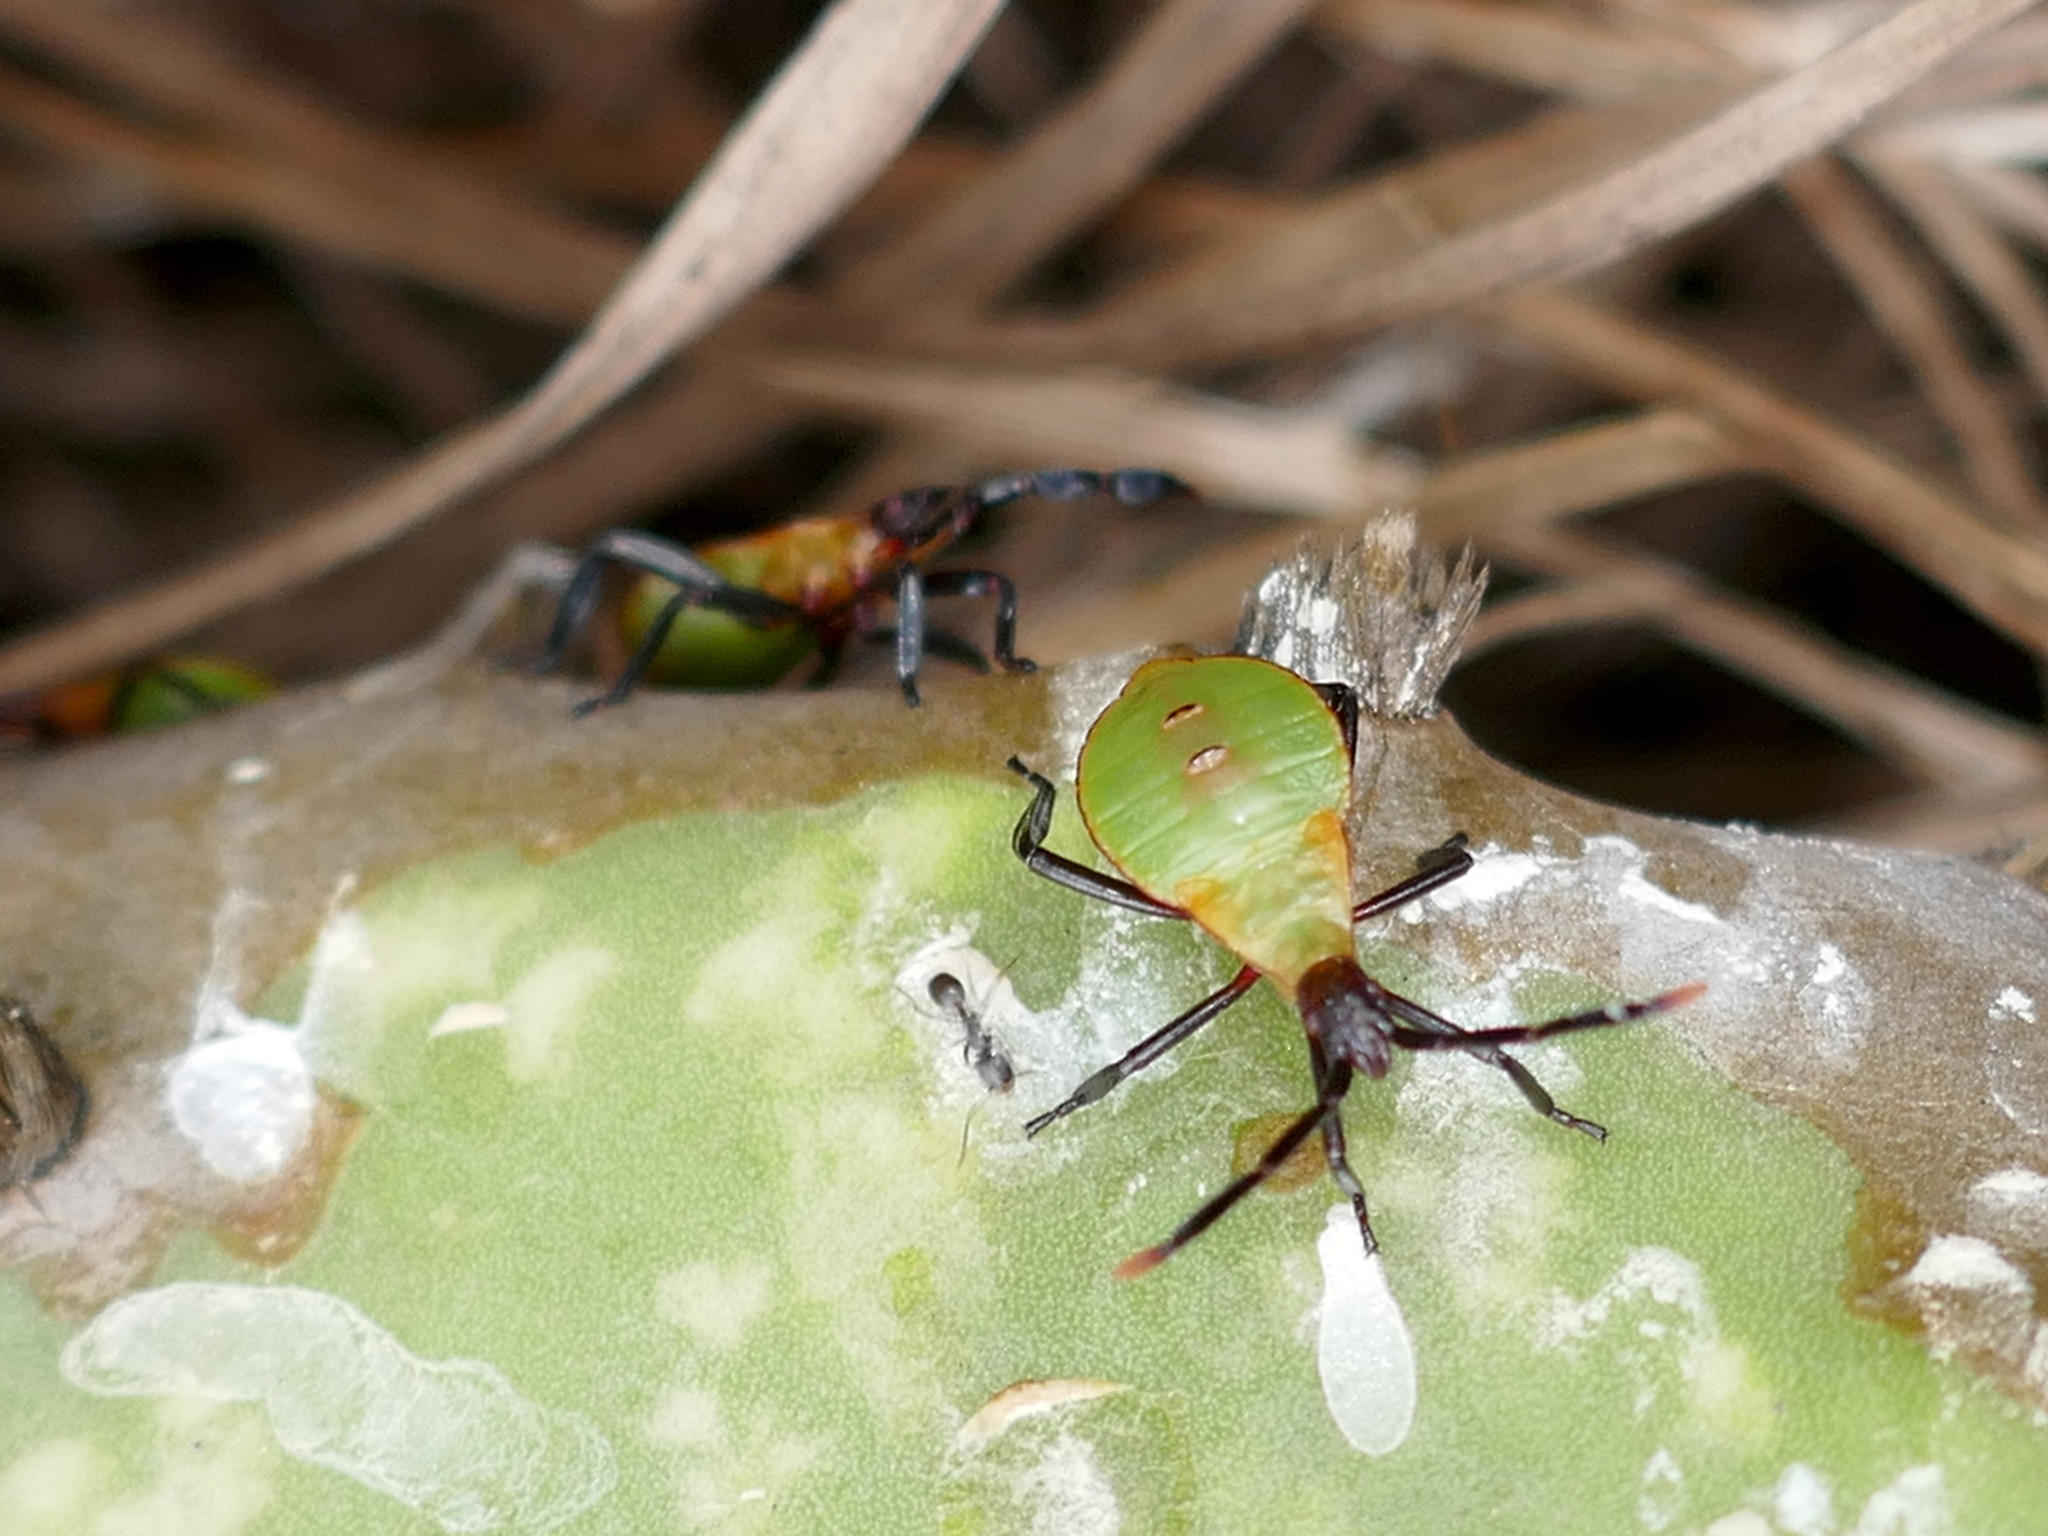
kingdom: Animalia
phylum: Arthropoda
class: Insecta
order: Hemiptera
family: Coreidae
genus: Chelinidea
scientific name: Chelinidea vittiger
